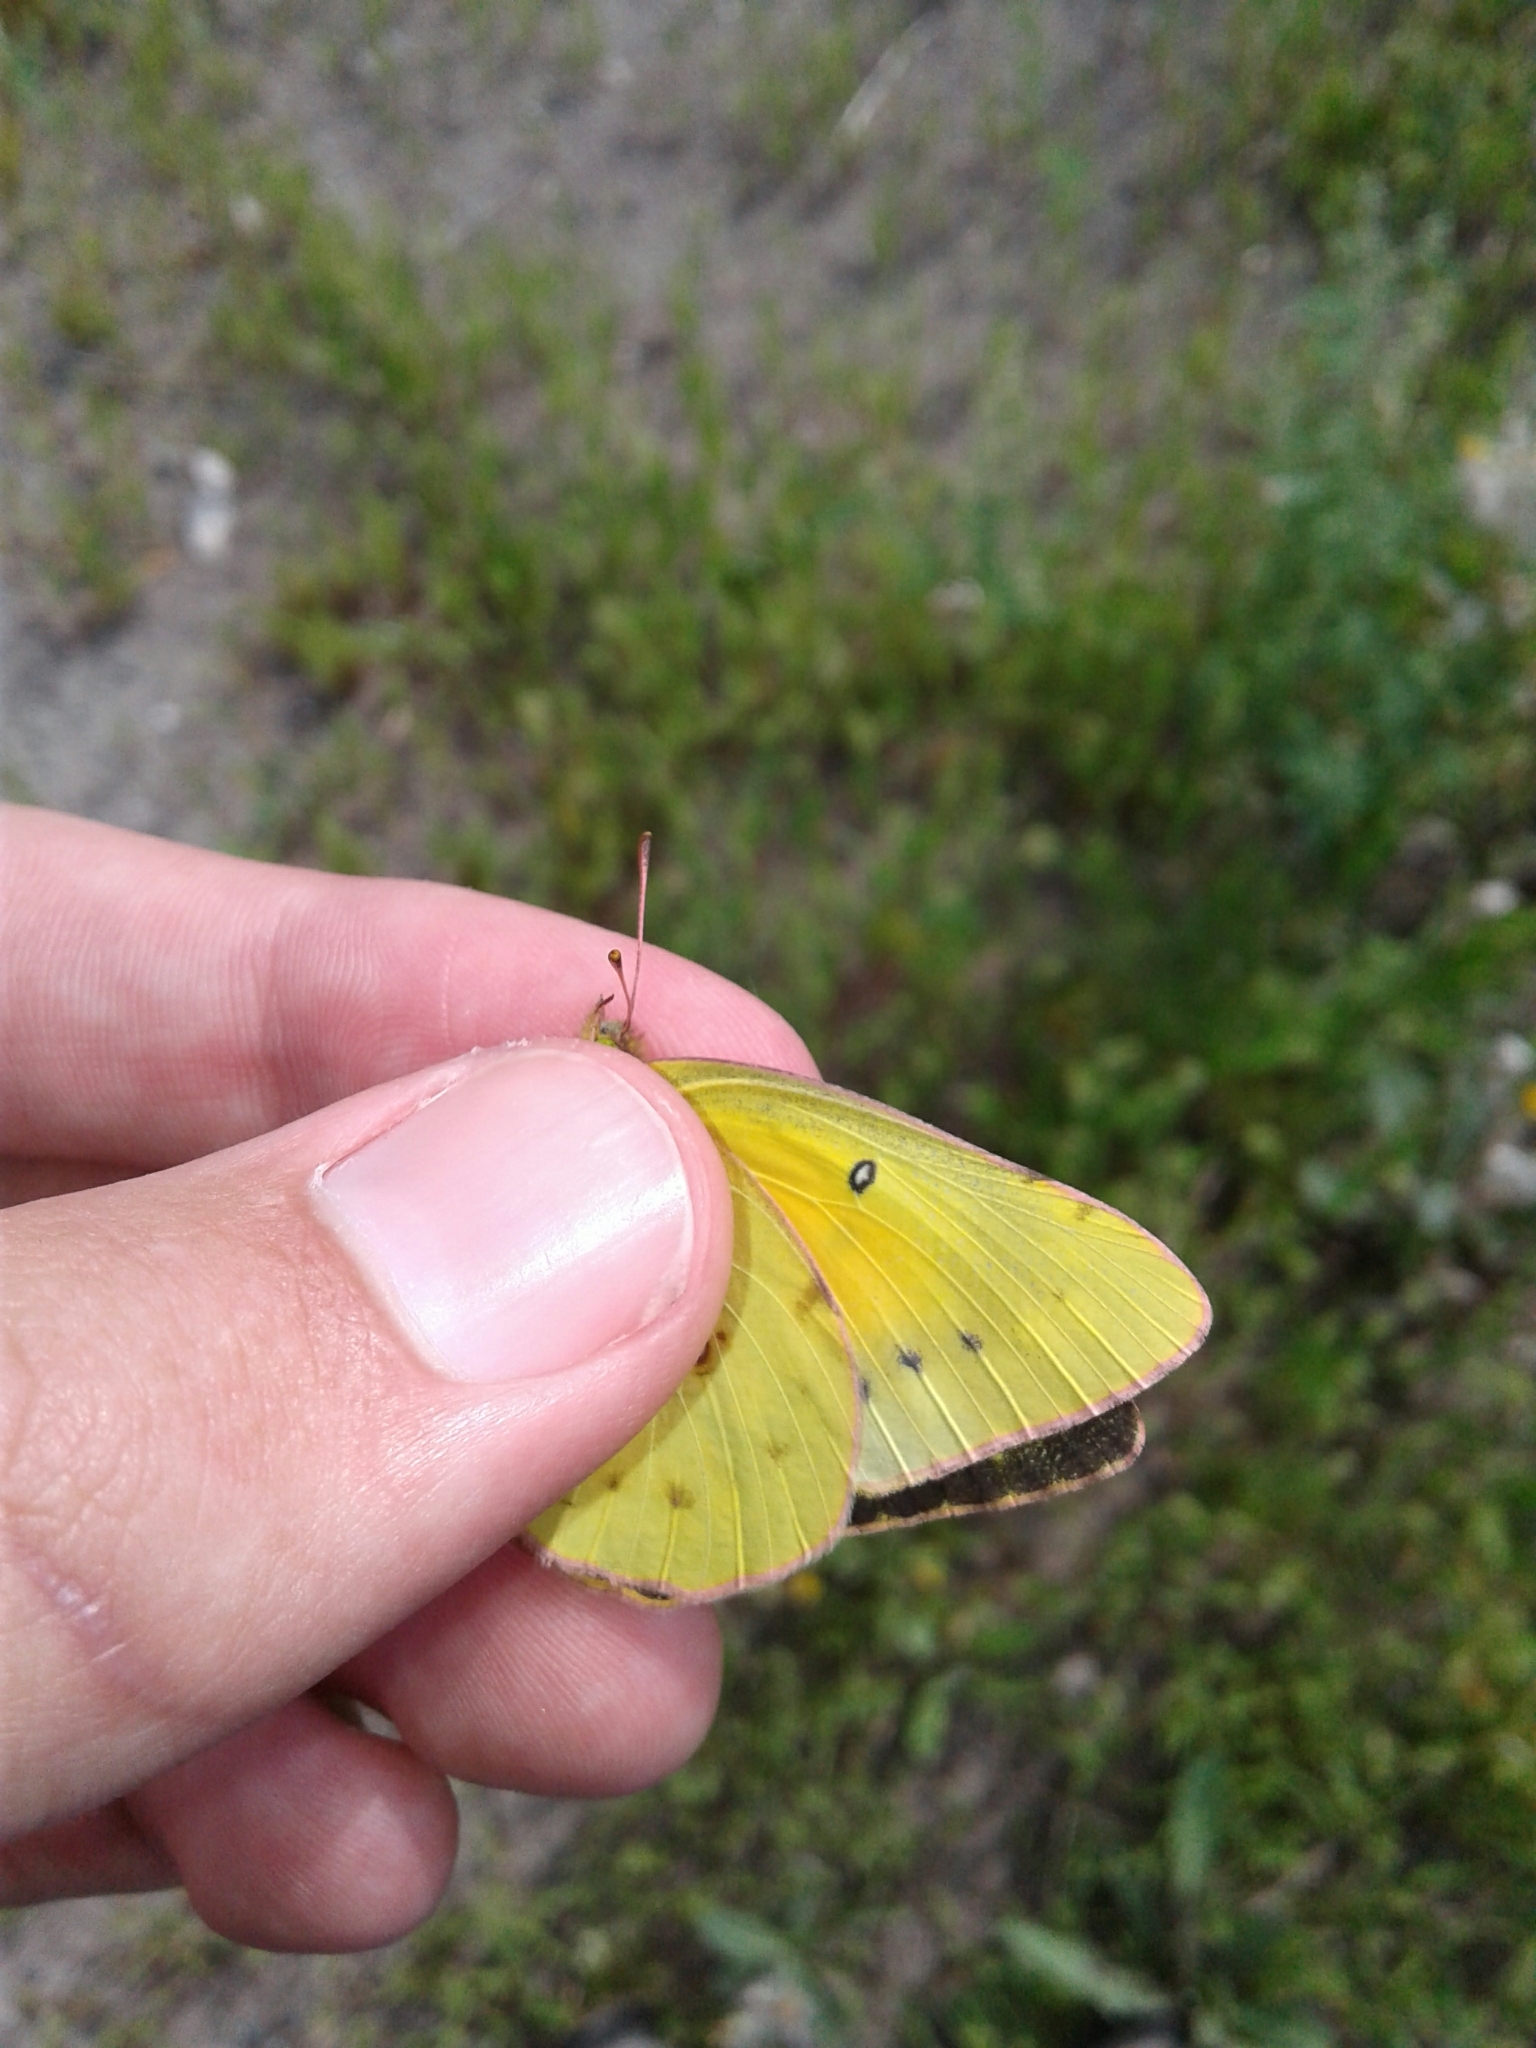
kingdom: Animalia
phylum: Arthropoda
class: Insecta
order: Lepidoptera
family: Pieridae
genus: Colias
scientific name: Colias eurytheme
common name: Alfalfa butterfly
